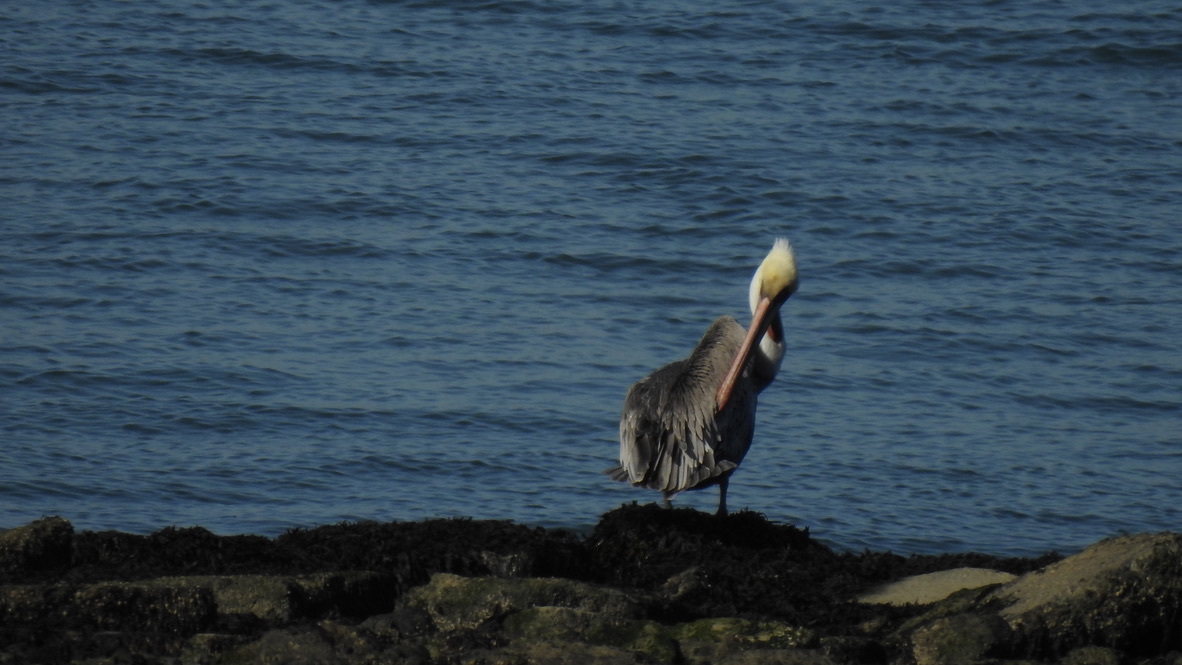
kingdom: Animalia
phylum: Chordata
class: Aves
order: Pelecaniformes
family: Pelecanidae
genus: Pelecanus
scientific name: Pelecanus occidentalis
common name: Brown pelican
